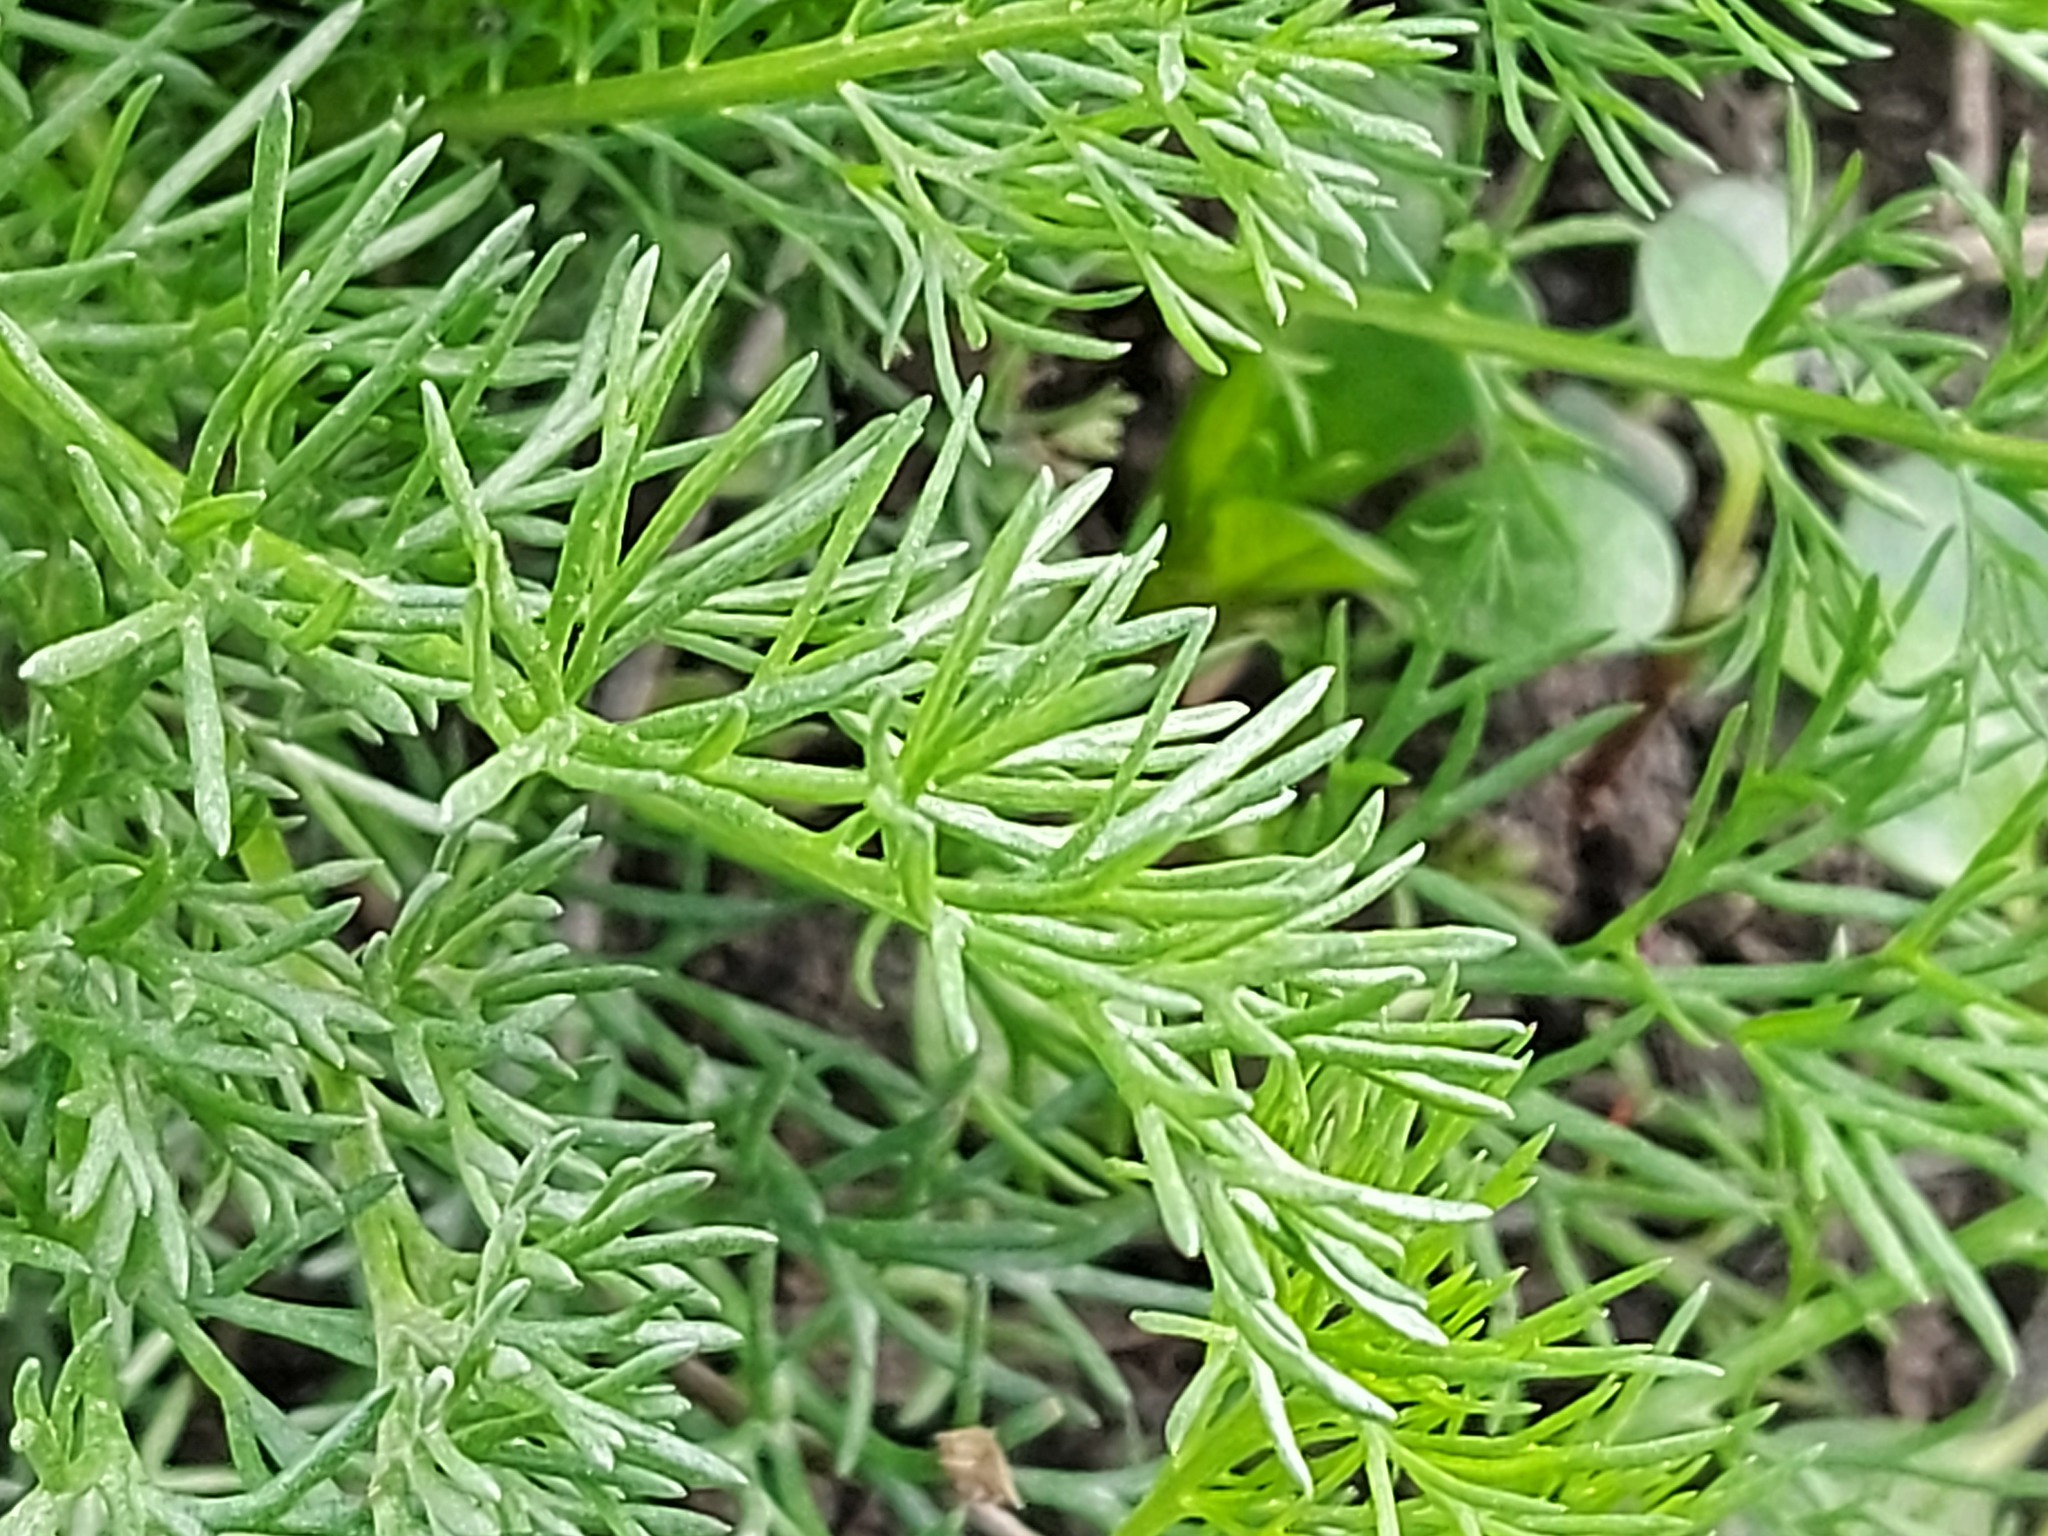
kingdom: Plantae
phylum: Tracheophyta
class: Magnoliopsida
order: Asterales
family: Asteraceae
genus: Tripleurospermum
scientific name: Tripleurospermum inodorum
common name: Scentless mayweed
